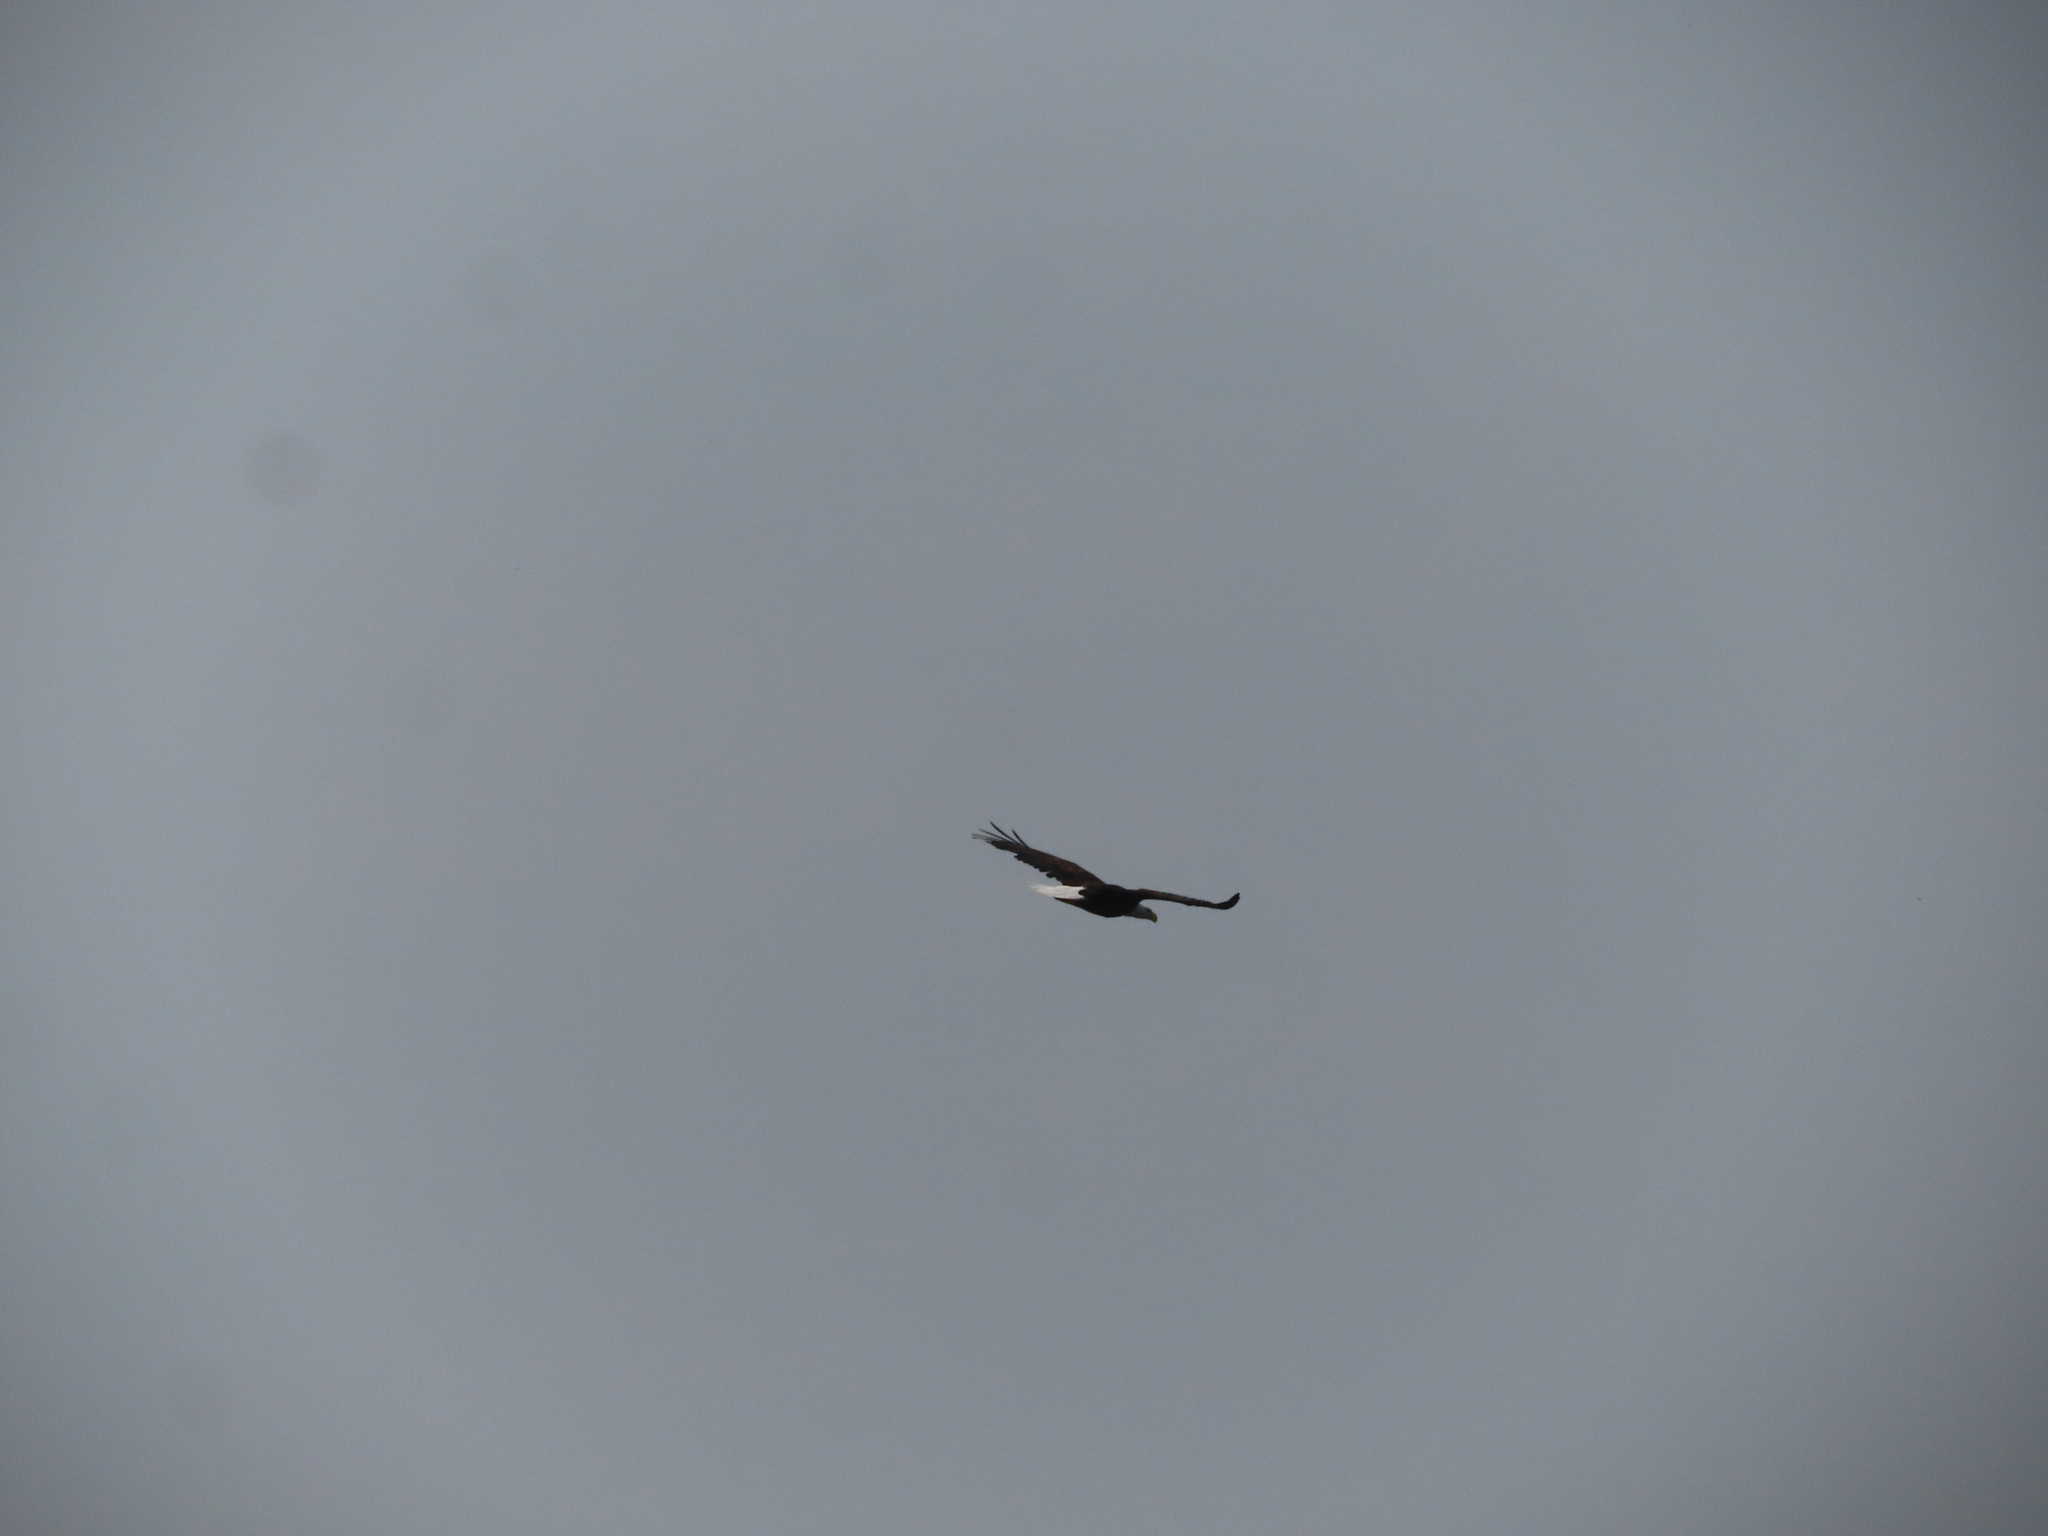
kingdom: Animalia
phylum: Chordata
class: Aves
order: Accipitriformes
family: Accipitridae
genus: Haliaeetus
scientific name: Haliaeetus leucocephalus
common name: Bald eagle
